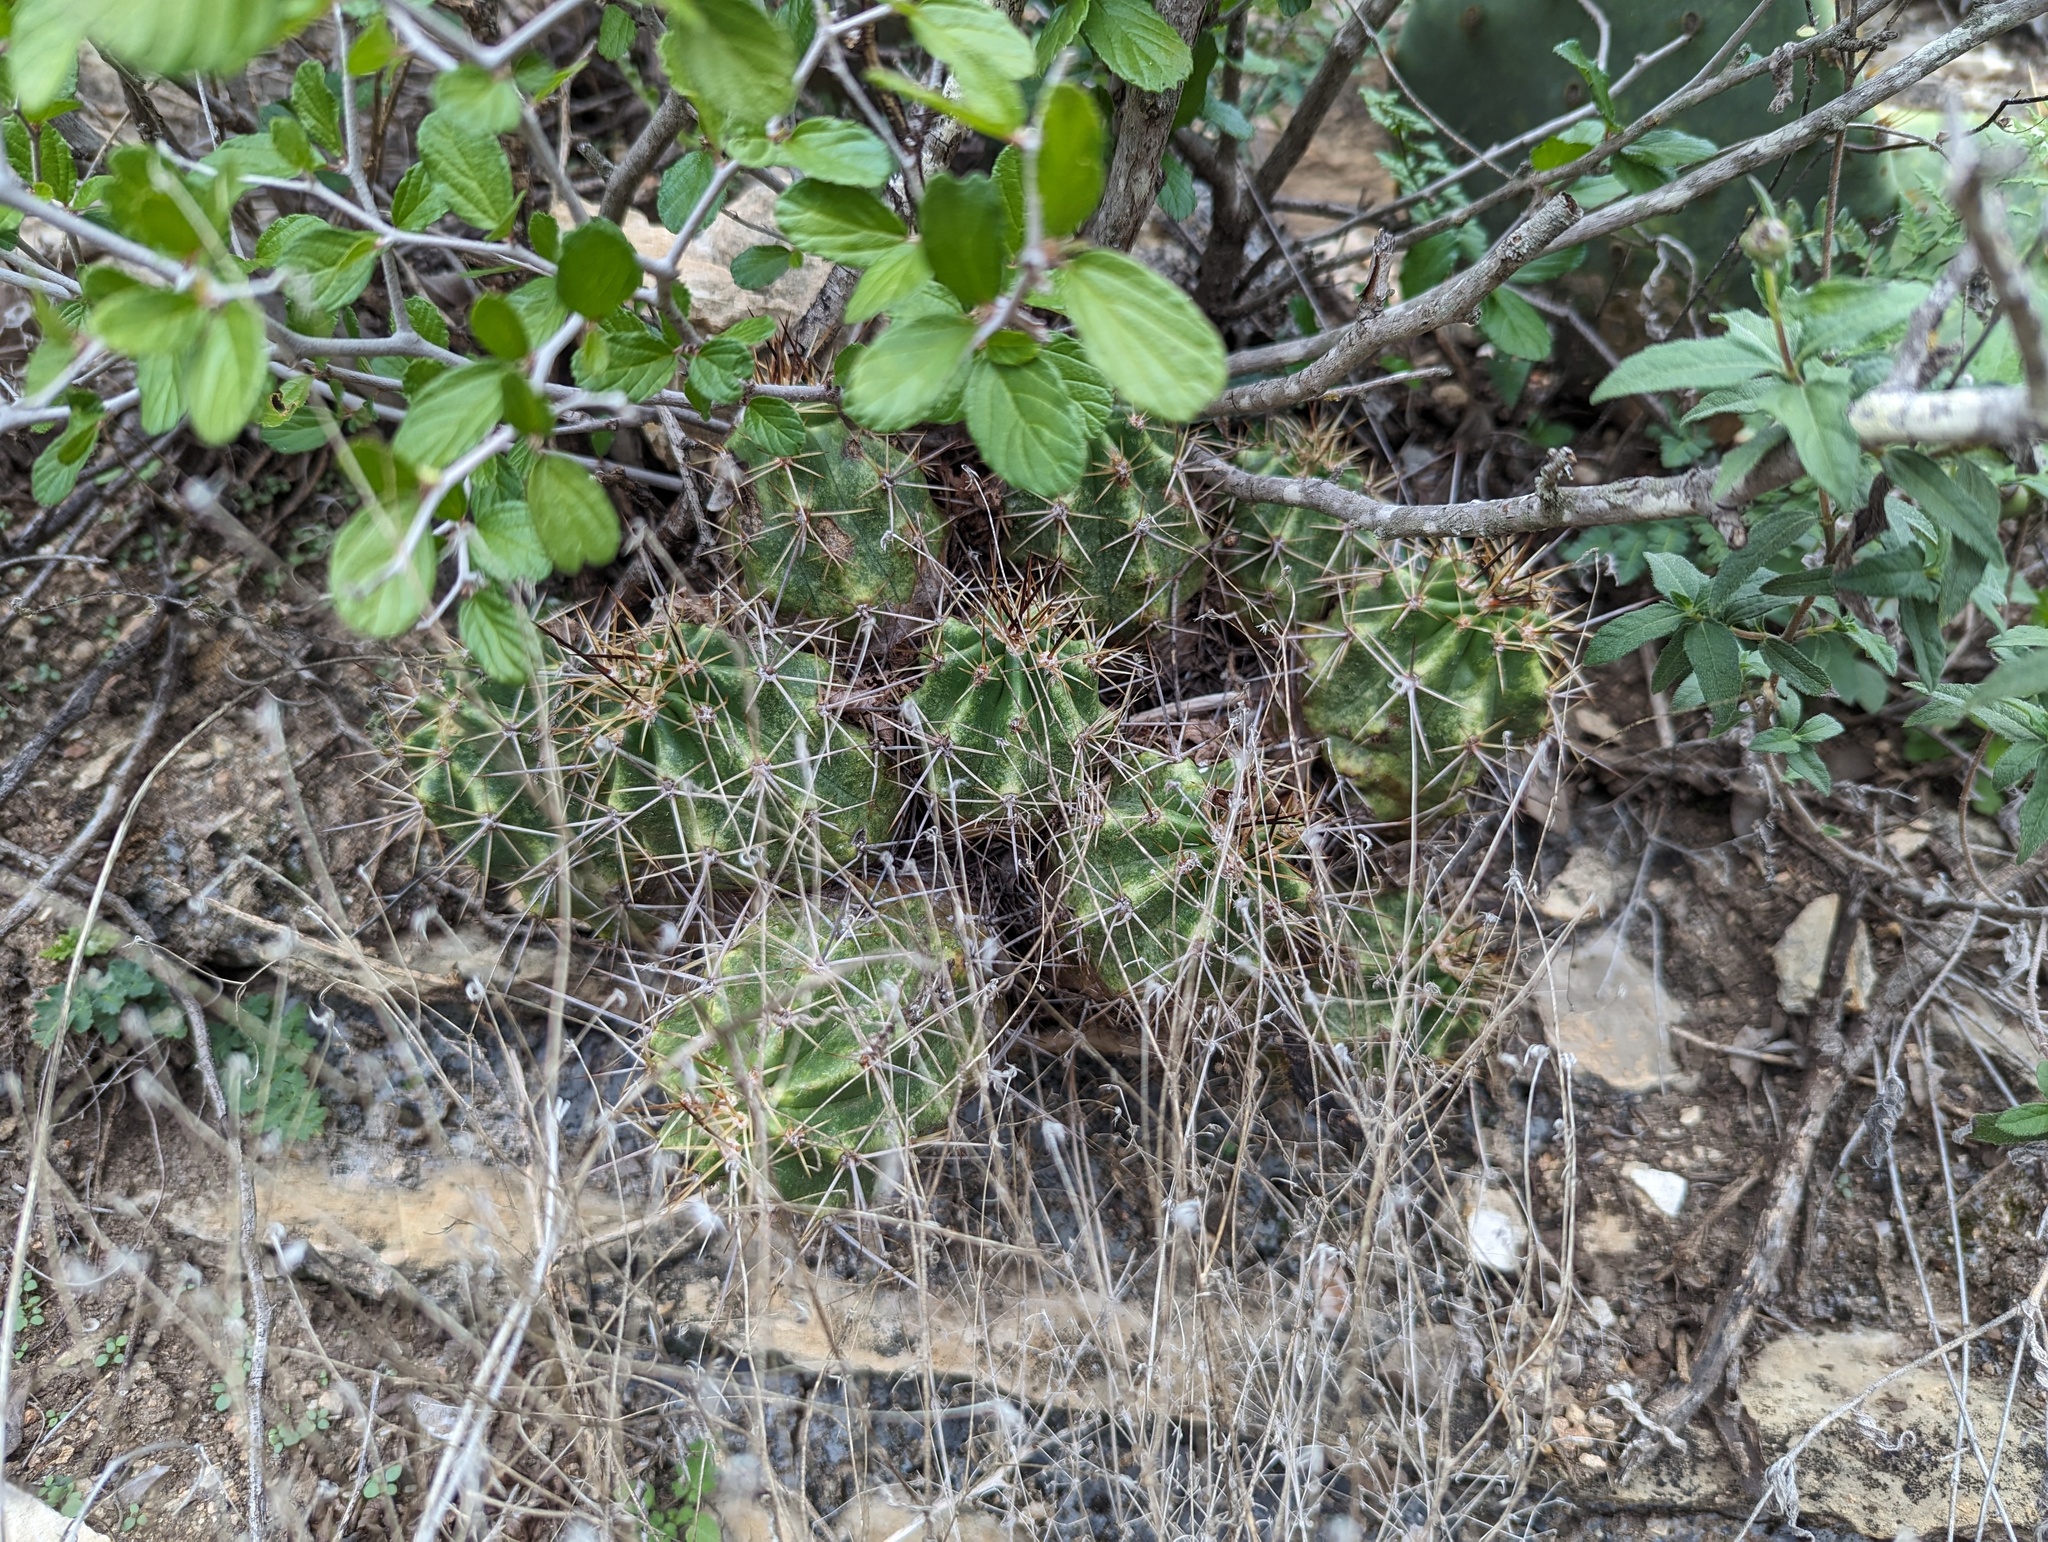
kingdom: Plantae
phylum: Tracheophyta
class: Magnoliopsida
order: Caryophyllales
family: Cactaceae
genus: Echinocereus
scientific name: Echinocereus coccineus
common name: Scarlet hedgehog cactus
